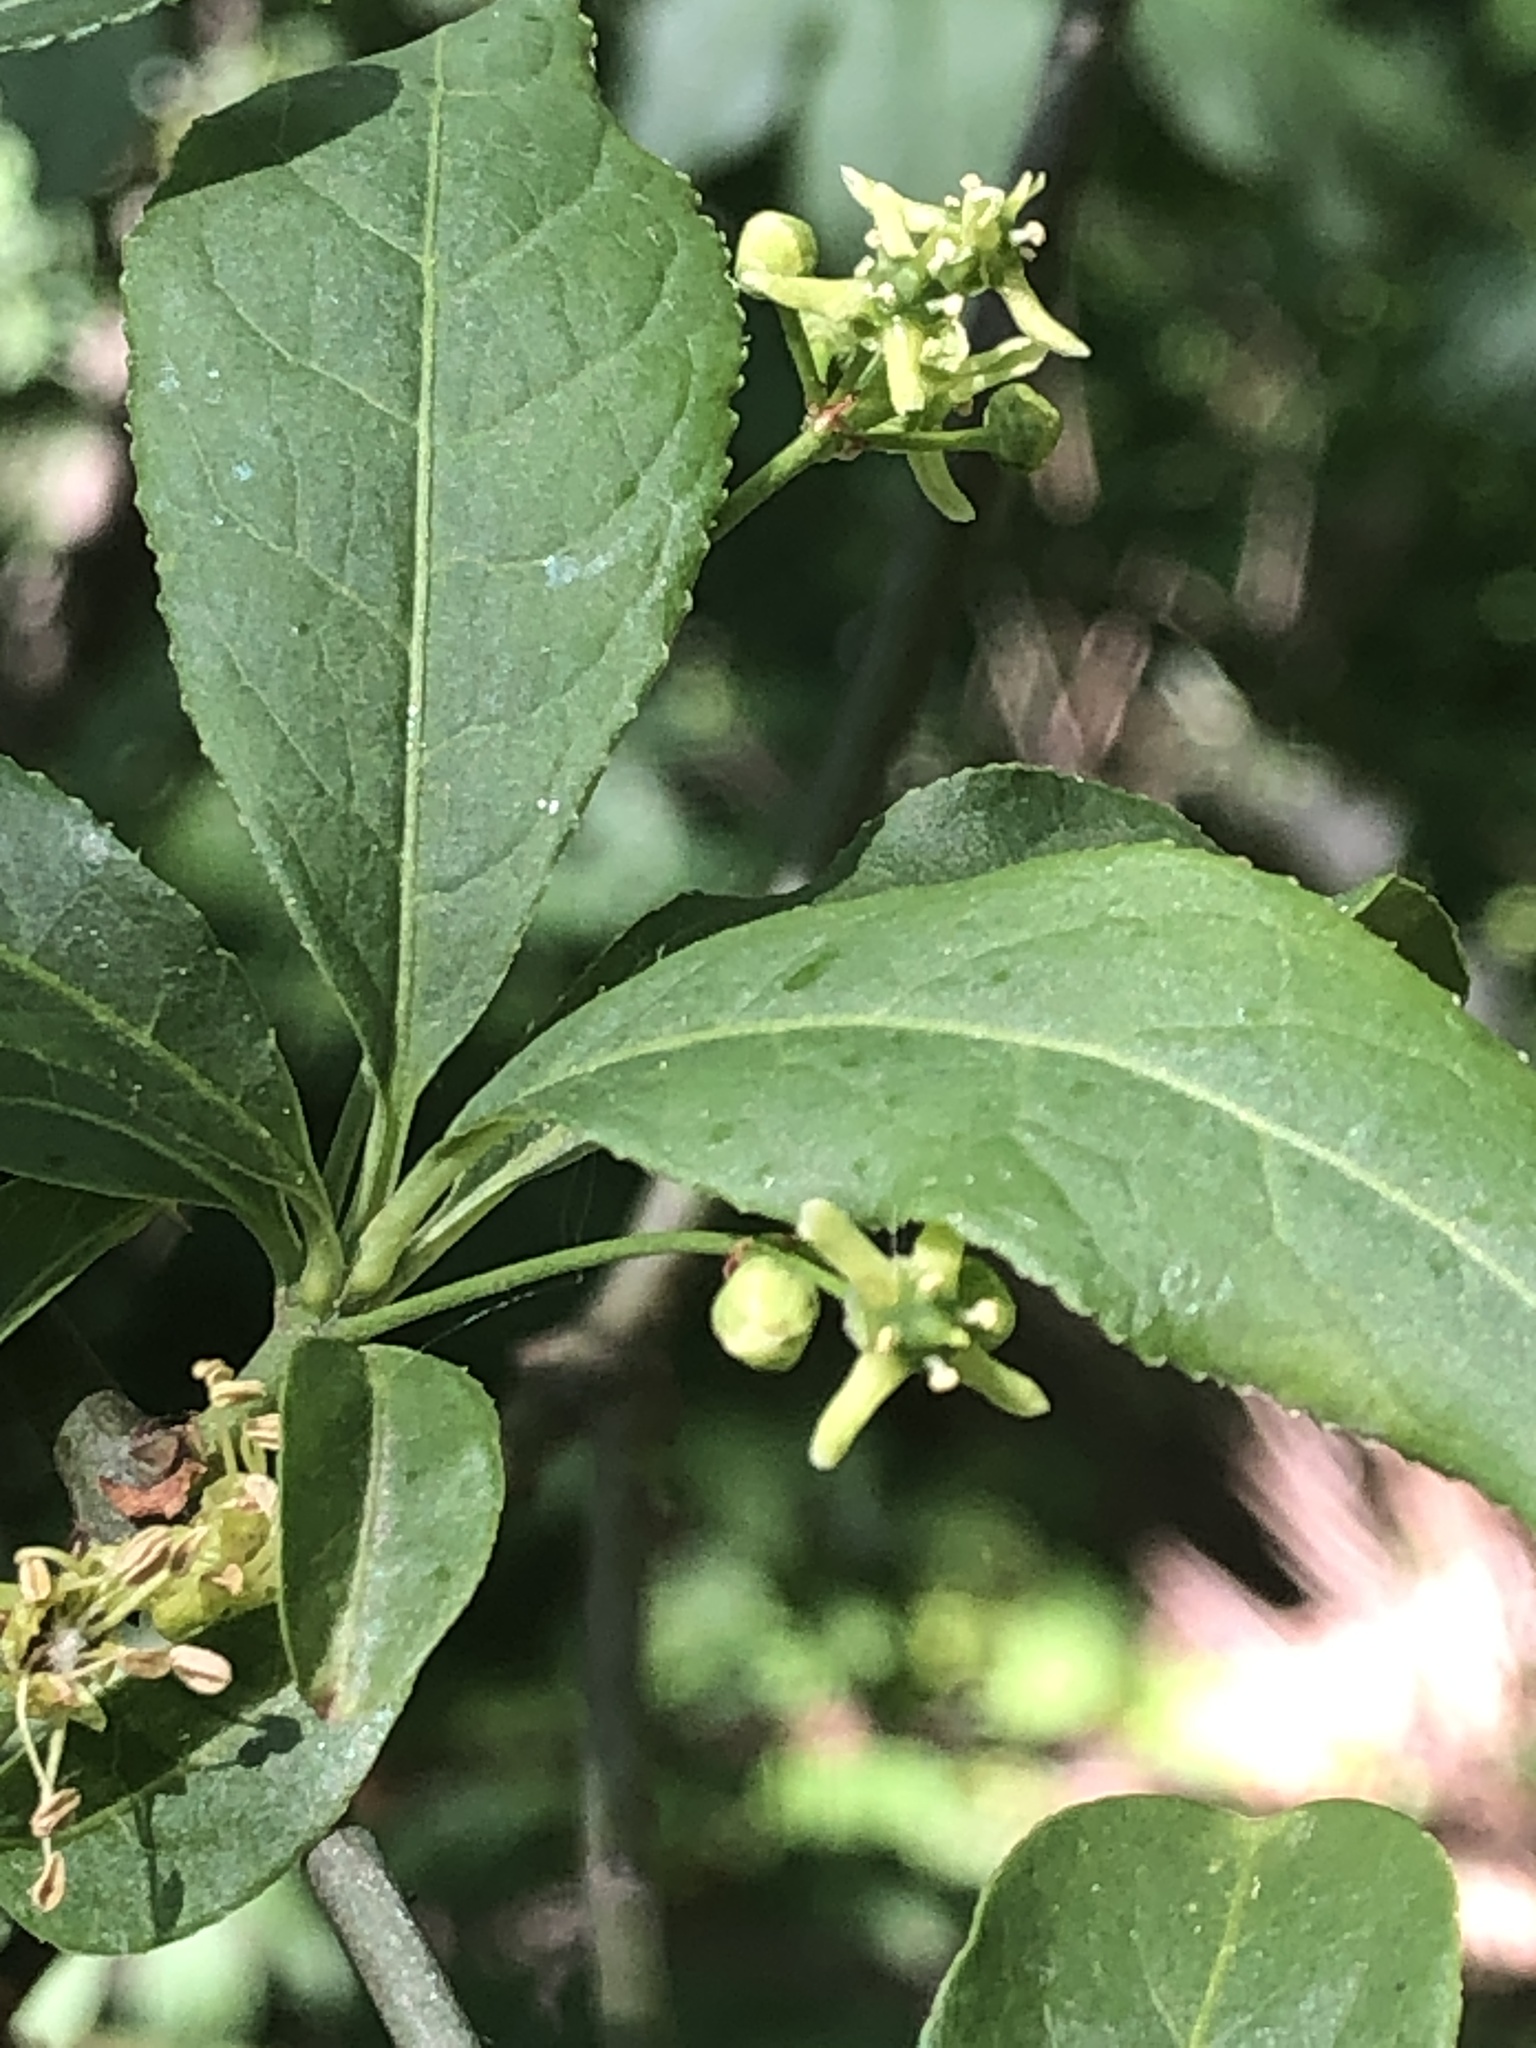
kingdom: Animalia
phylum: Arthropoda
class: Insecta
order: Lepidoptera
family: Yponomeutidae
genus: Yponomeuta
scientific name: Yponomeuta cagnagellus
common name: Spindle ermine
